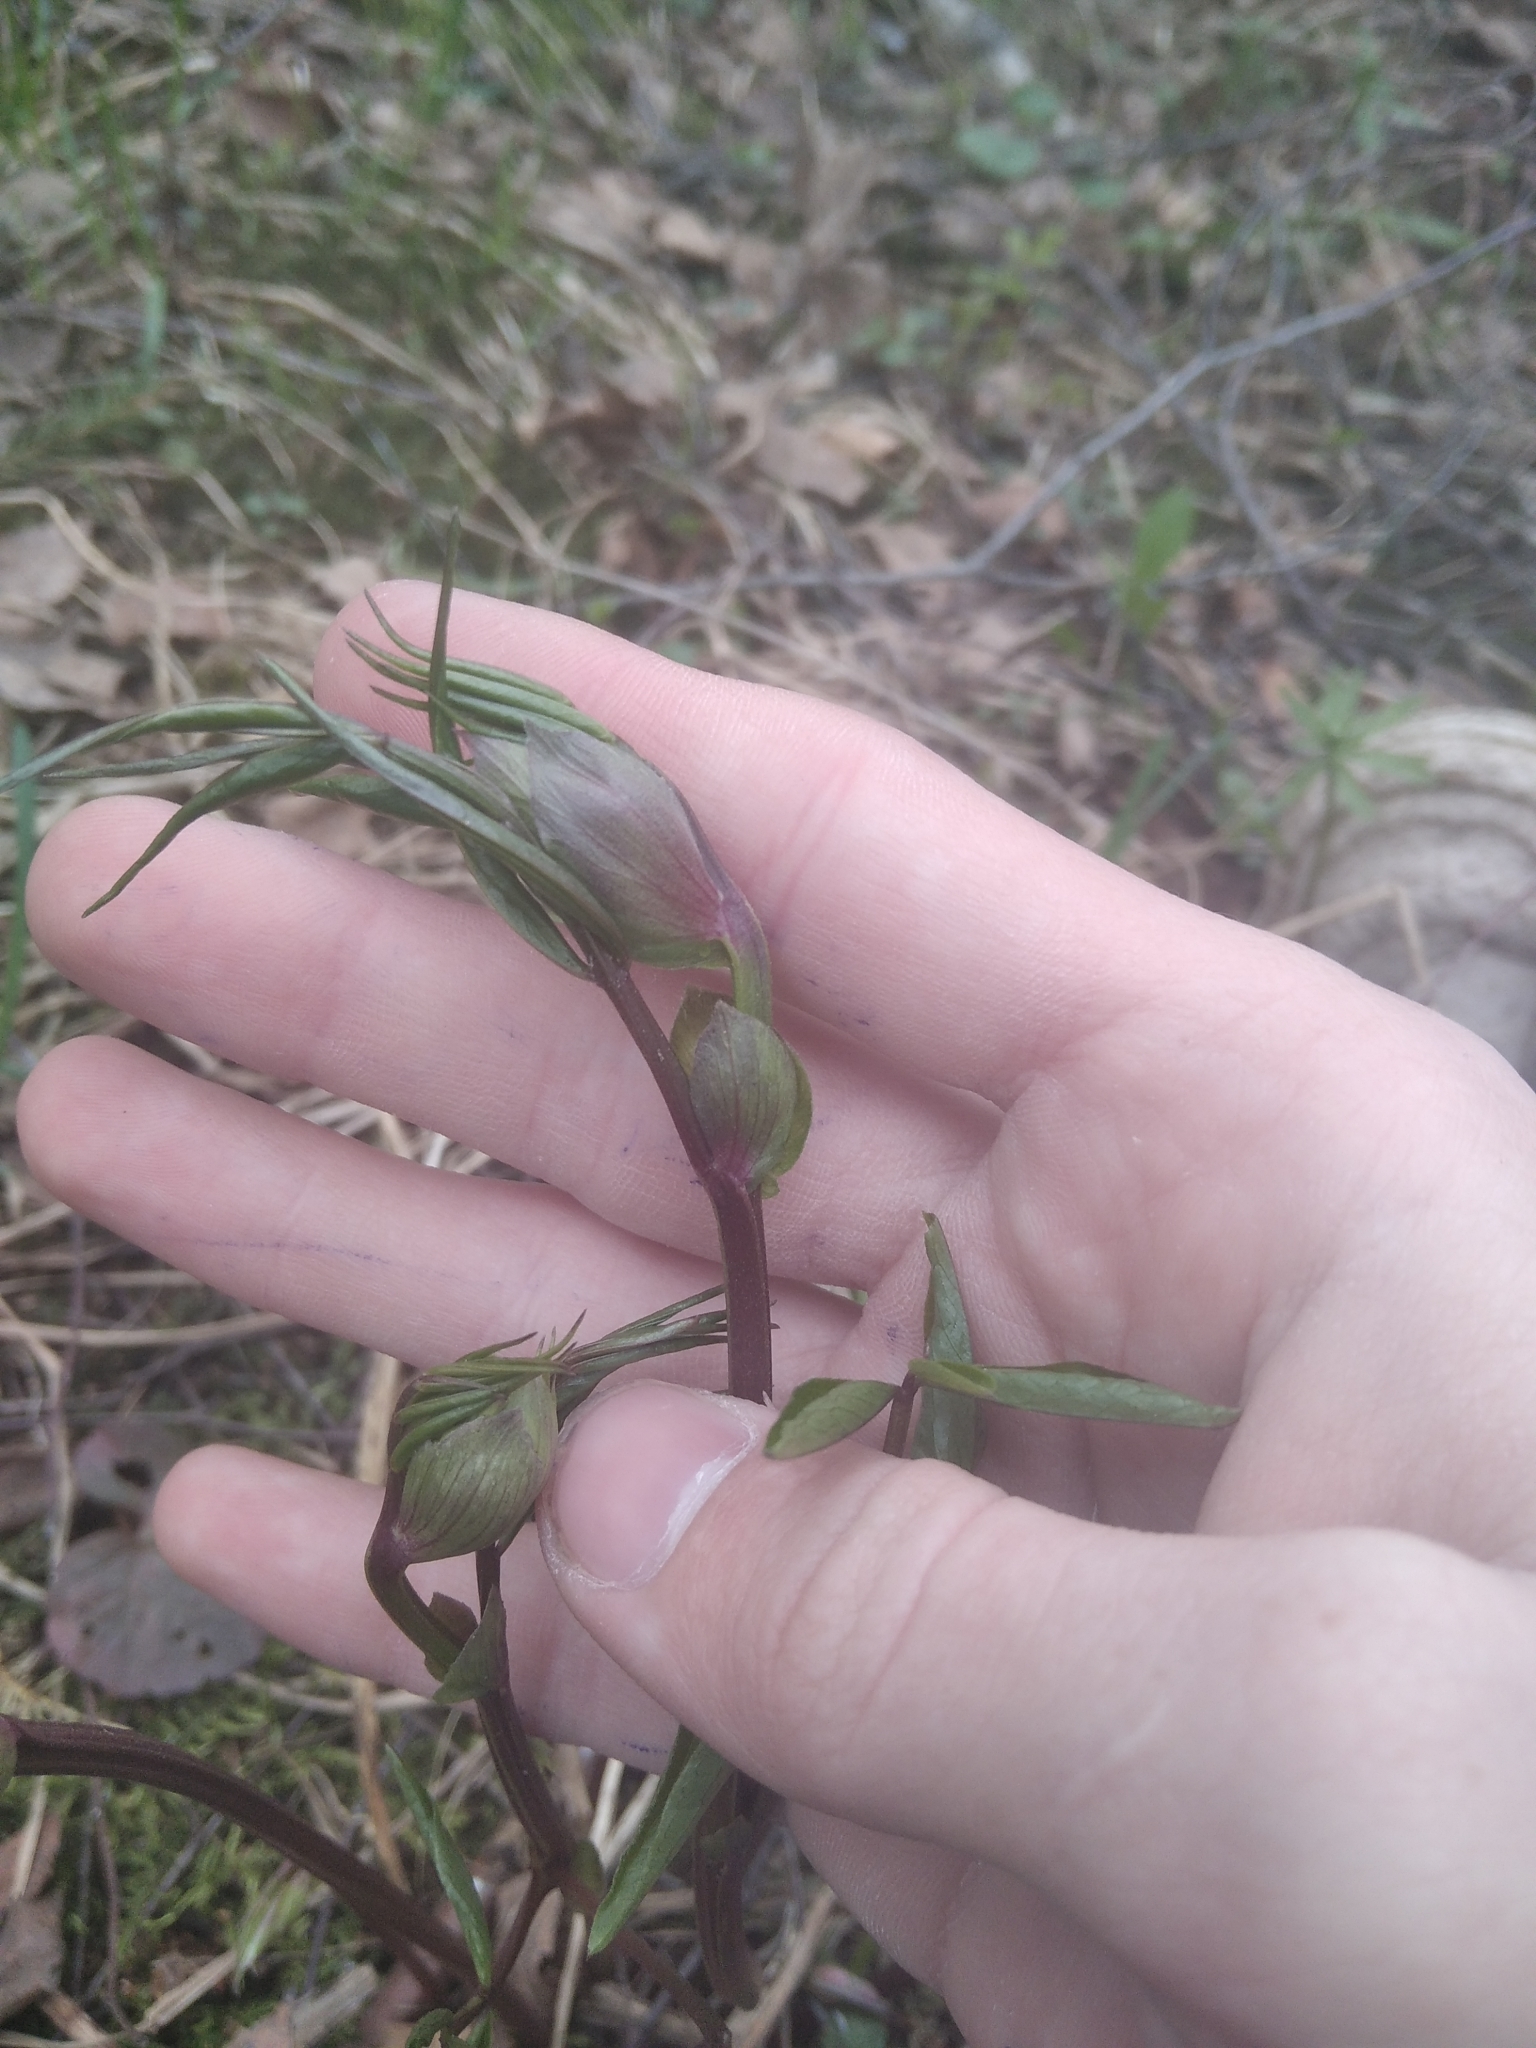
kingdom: Plantae
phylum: Tracheophyta
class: Magnoliopsida
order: Fabales
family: Fabaceae
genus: Lathyrus
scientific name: Lathyrus vernus
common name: Spring pea
